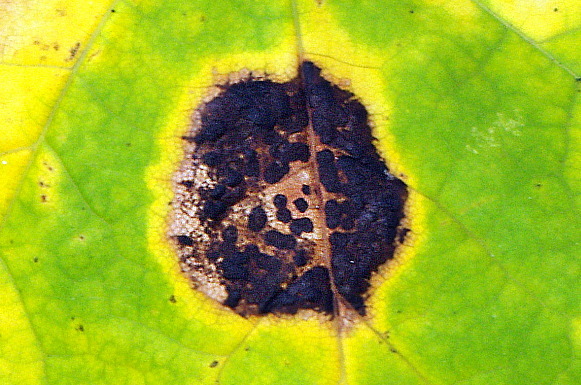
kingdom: Fungi
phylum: Ascomycota
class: Leotiomycetes
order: Rhytismatales
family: Rhytismataceae
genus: Rhytisma
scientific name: Rhytisma acerinum
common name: European tar spot
